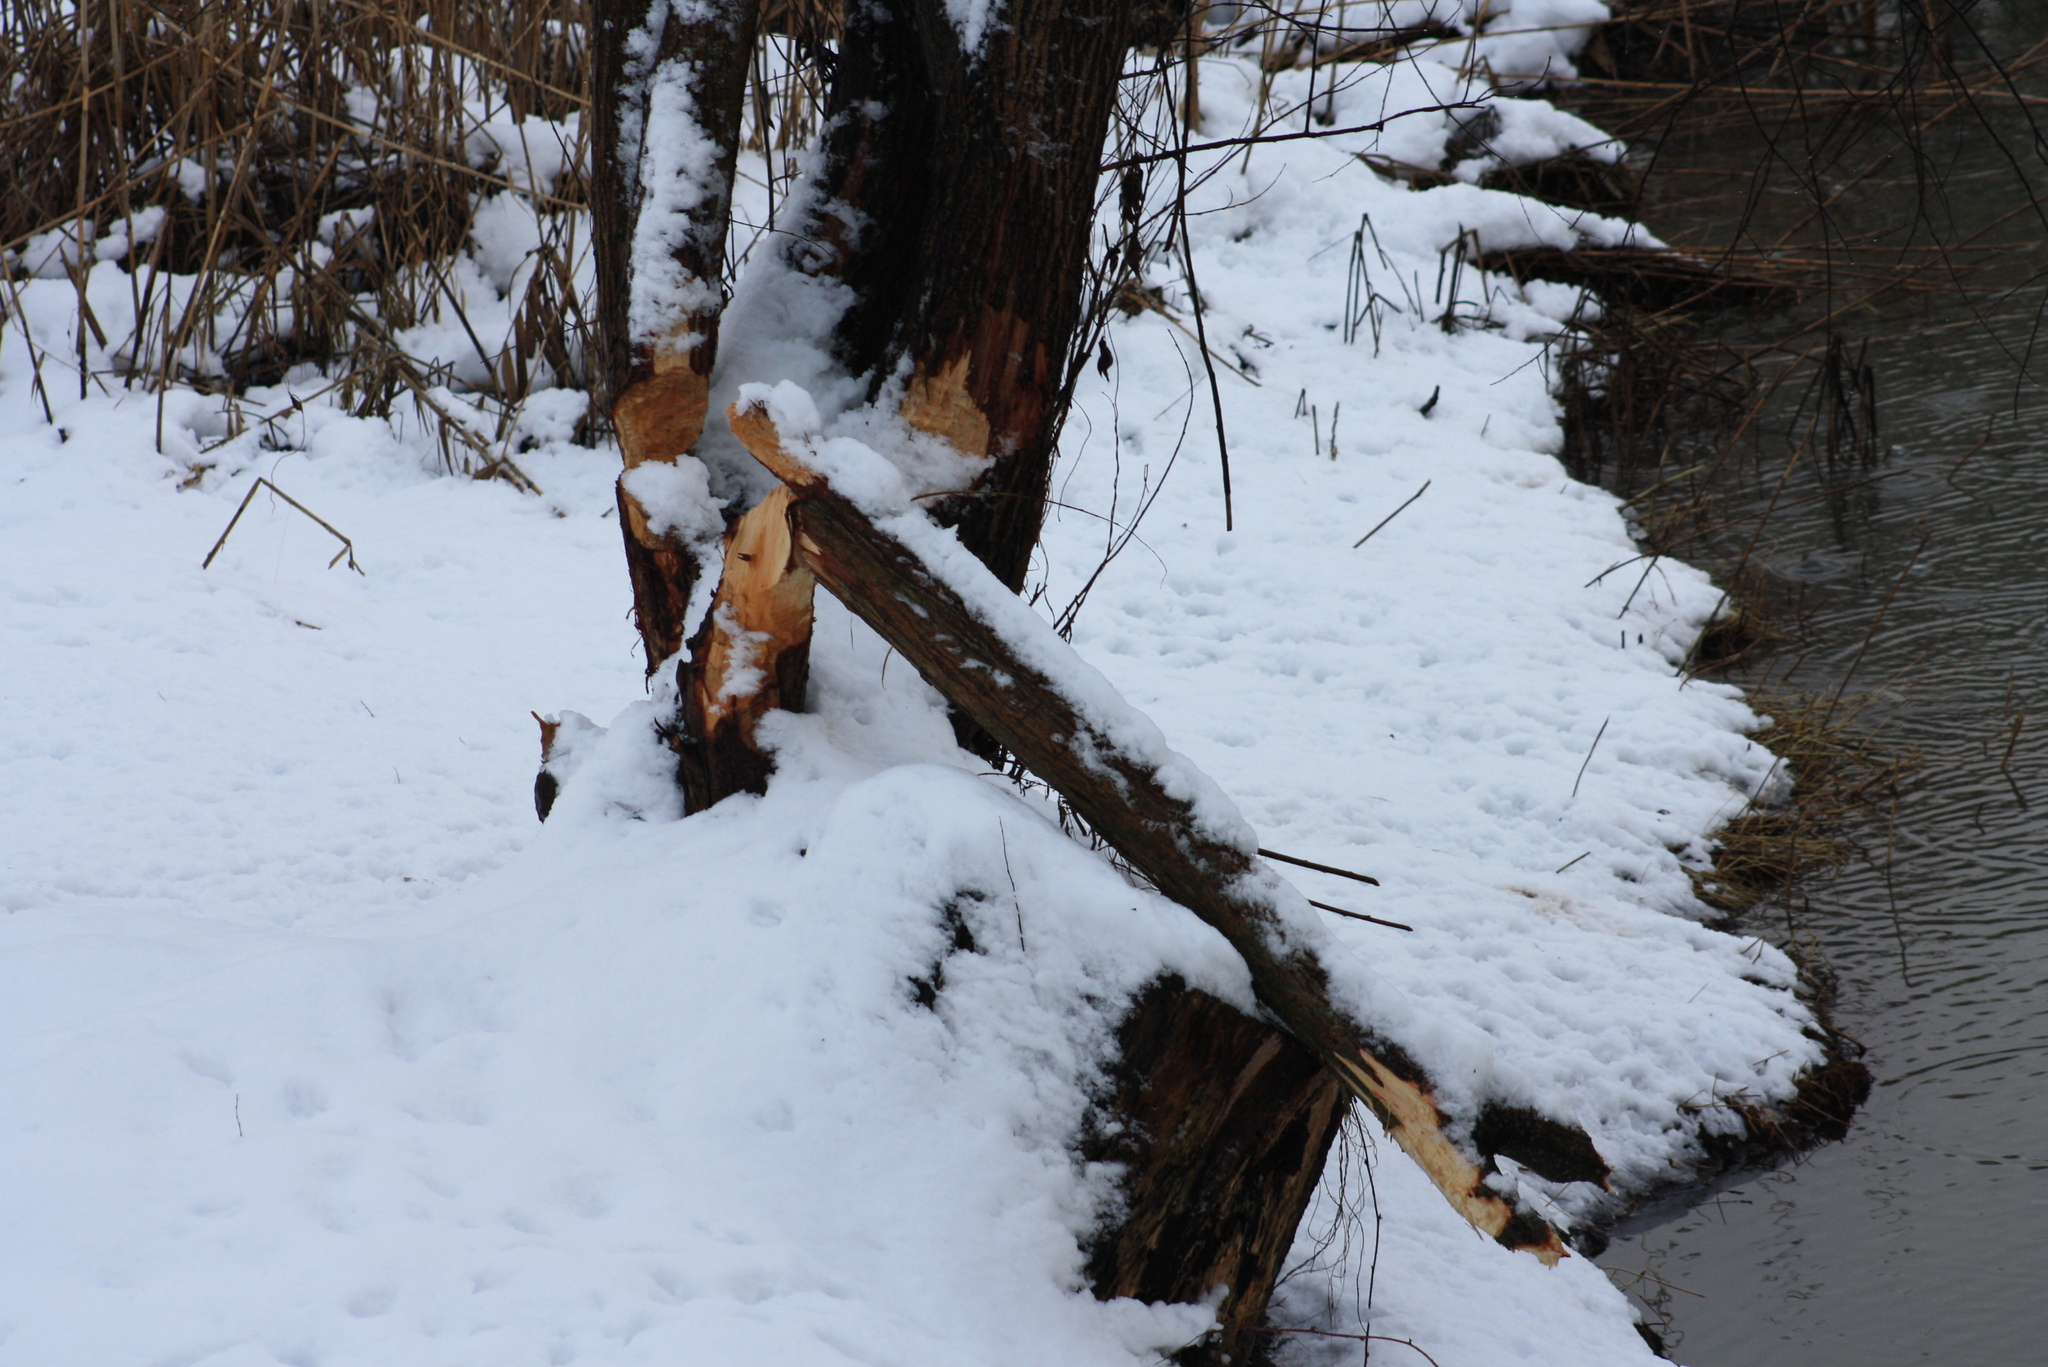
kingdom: Animalia
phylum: Chordata
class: Mammalia
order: Rodentia
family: Castoridae
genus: Castor
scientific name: Castor fiber
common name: Eurasian beaver
